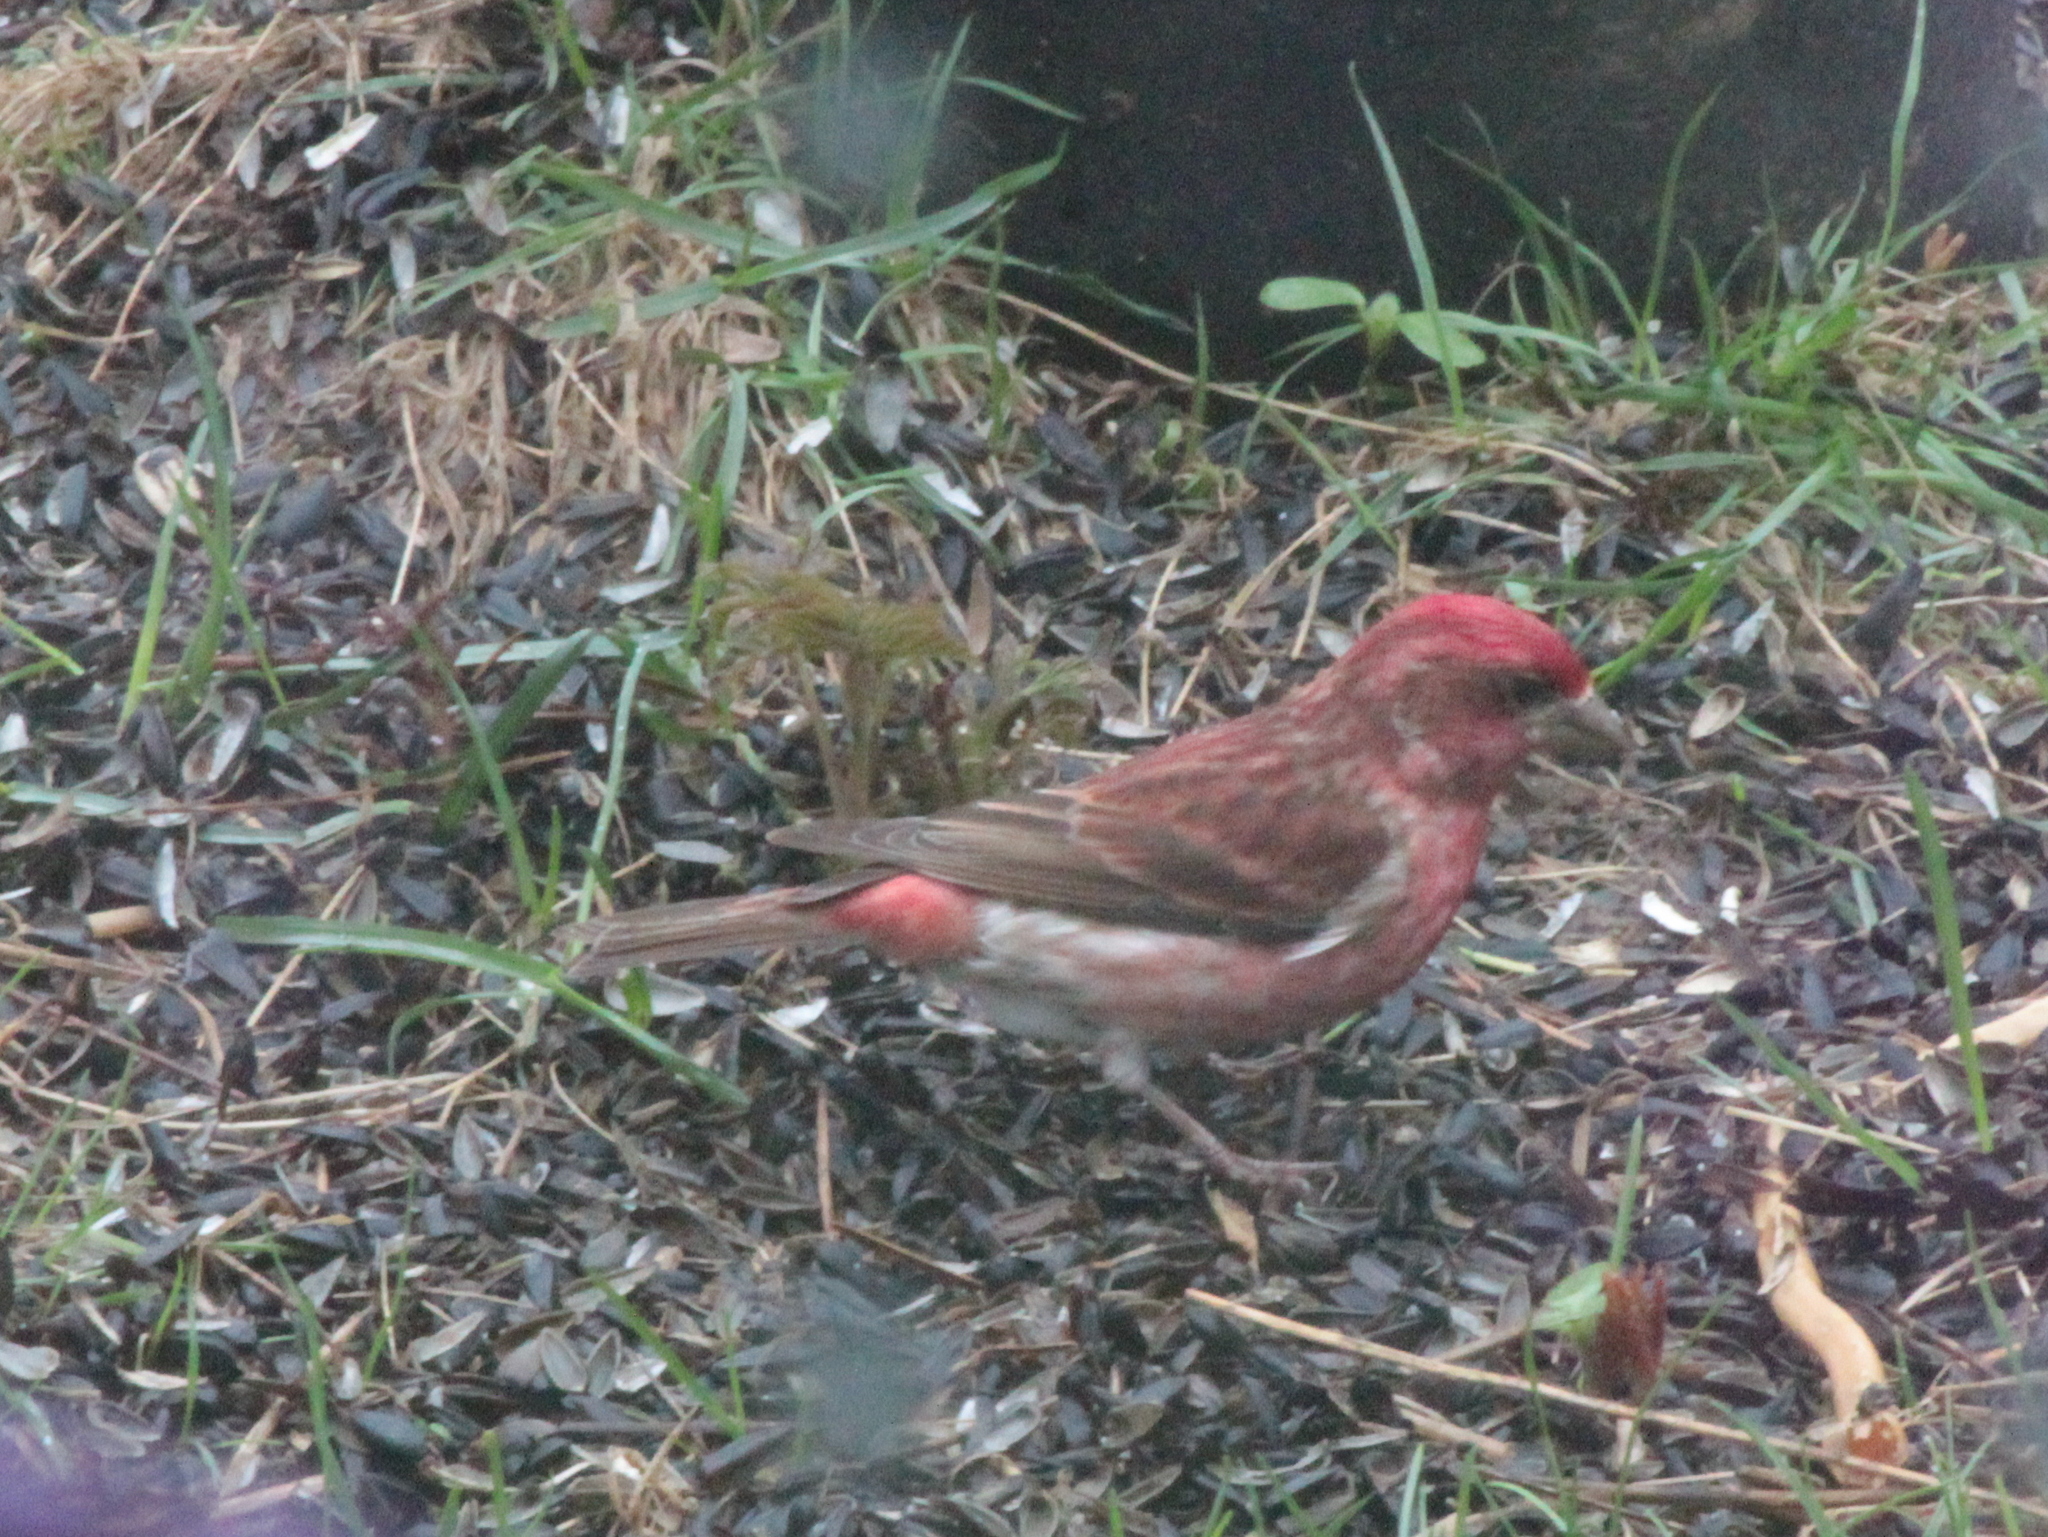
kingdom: Animalia
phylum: Chordata
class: Aves
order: Passeriformes
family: Fringillidae
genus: Haemorhous
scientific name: Haemorhous purpureus
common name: Purple finch
